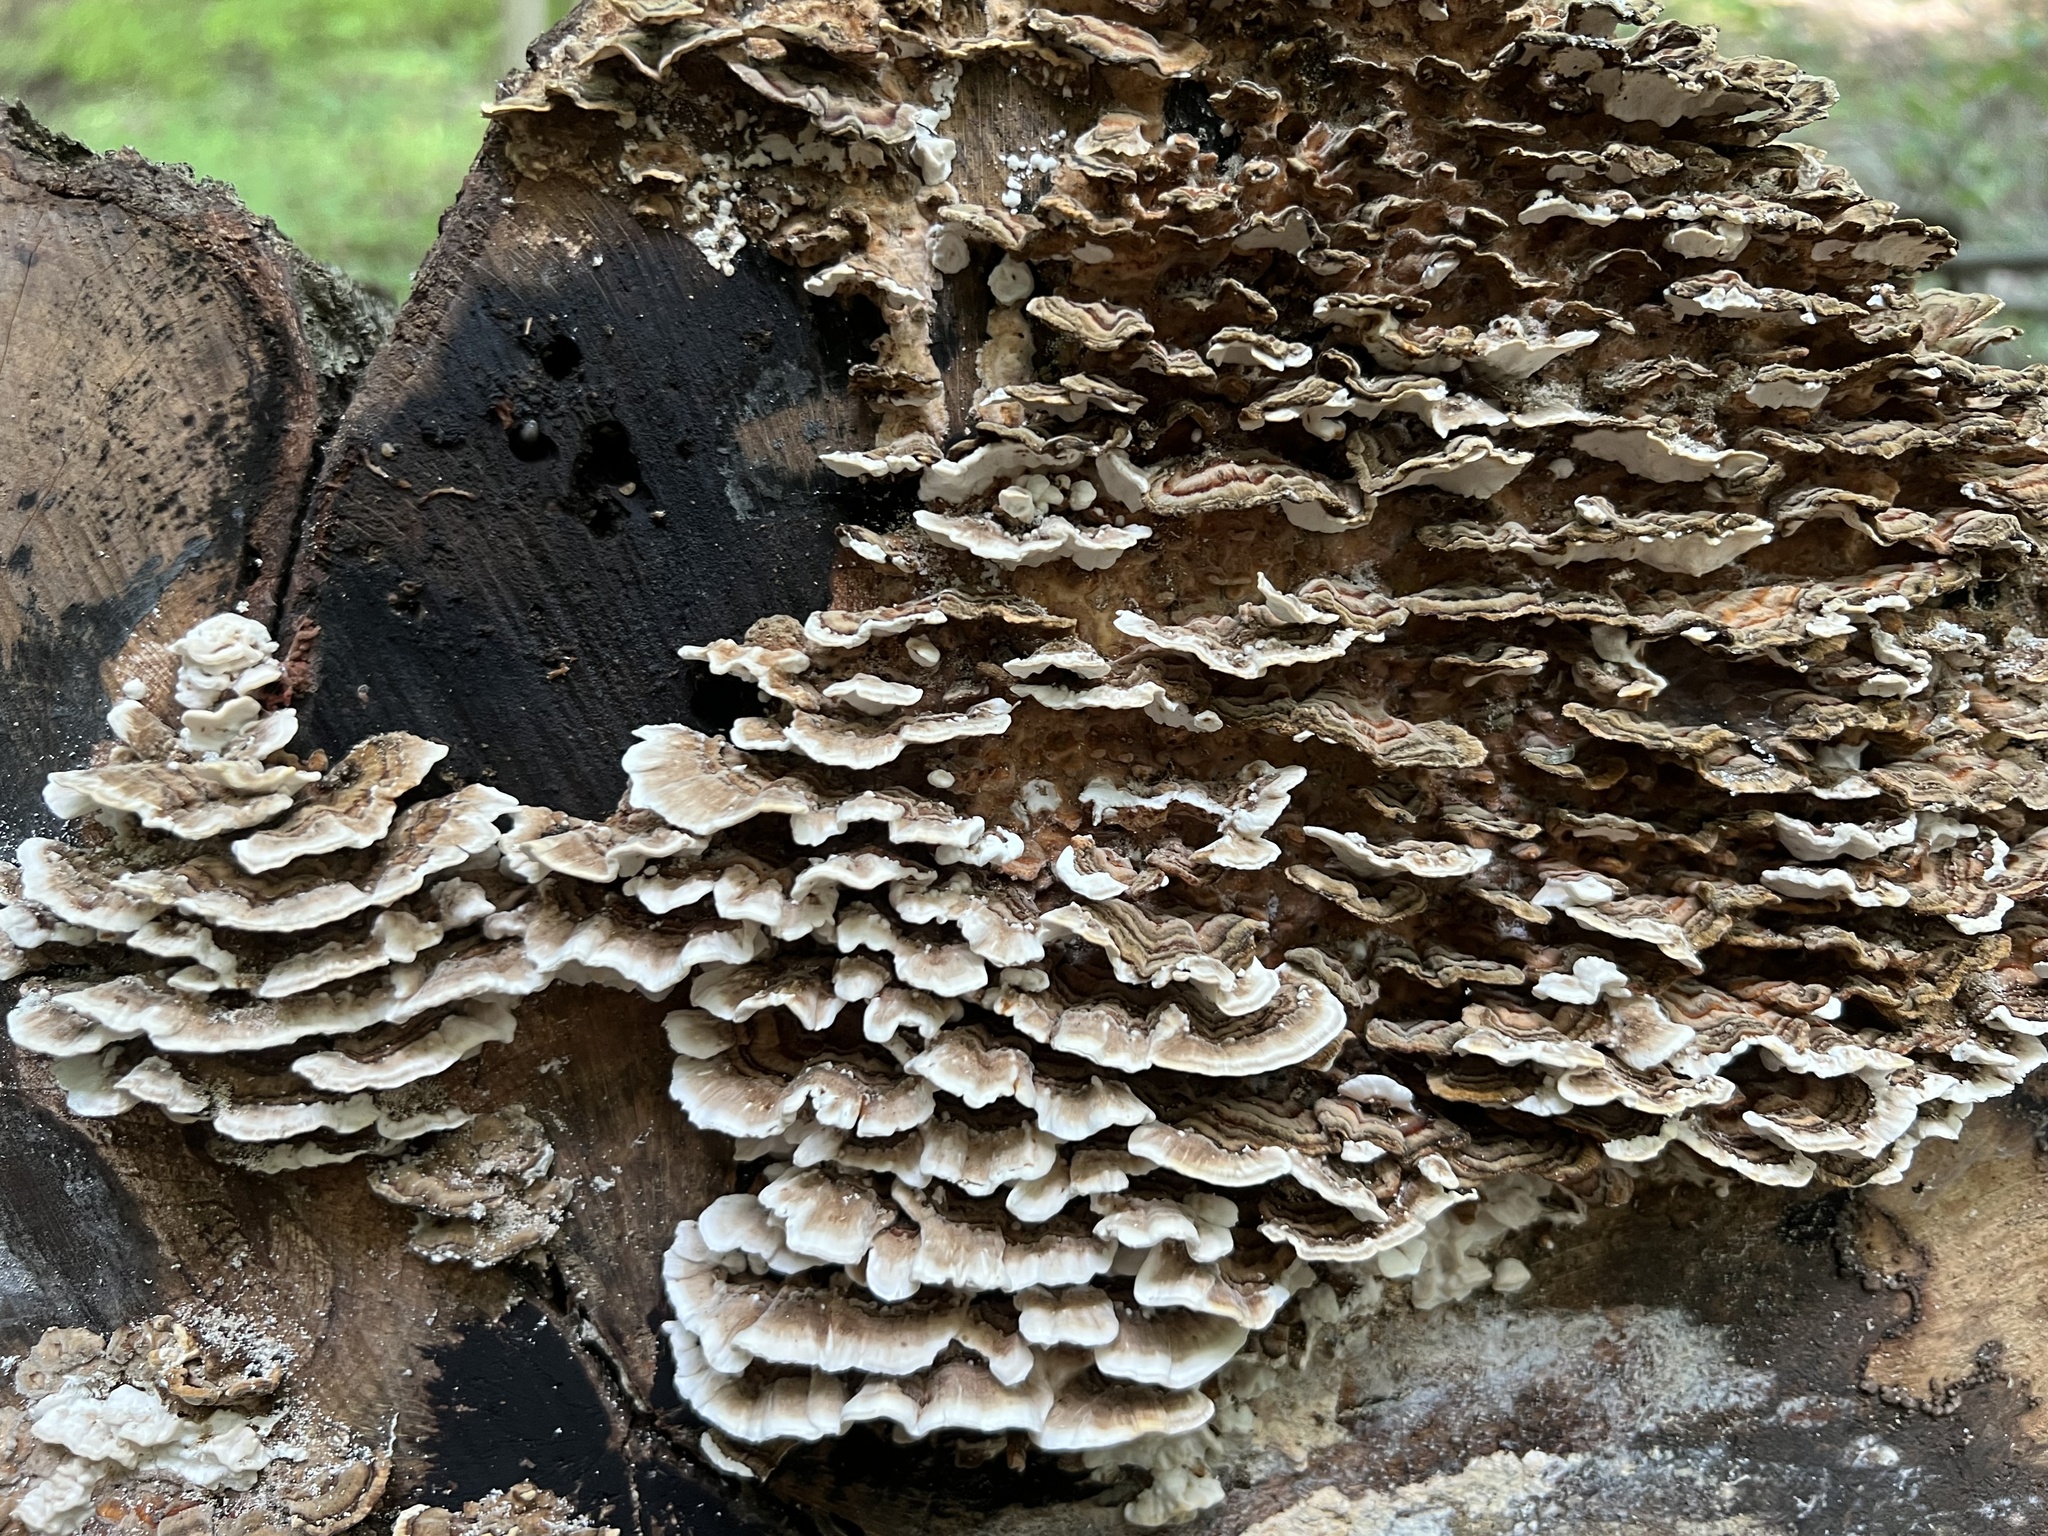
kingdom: Fungi
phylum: Basidiomycota
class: Agaricomycetes
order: Polyporales
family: Polyporaceae
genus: Trametes
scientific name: Trametes versicolor
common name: Turkeytail
